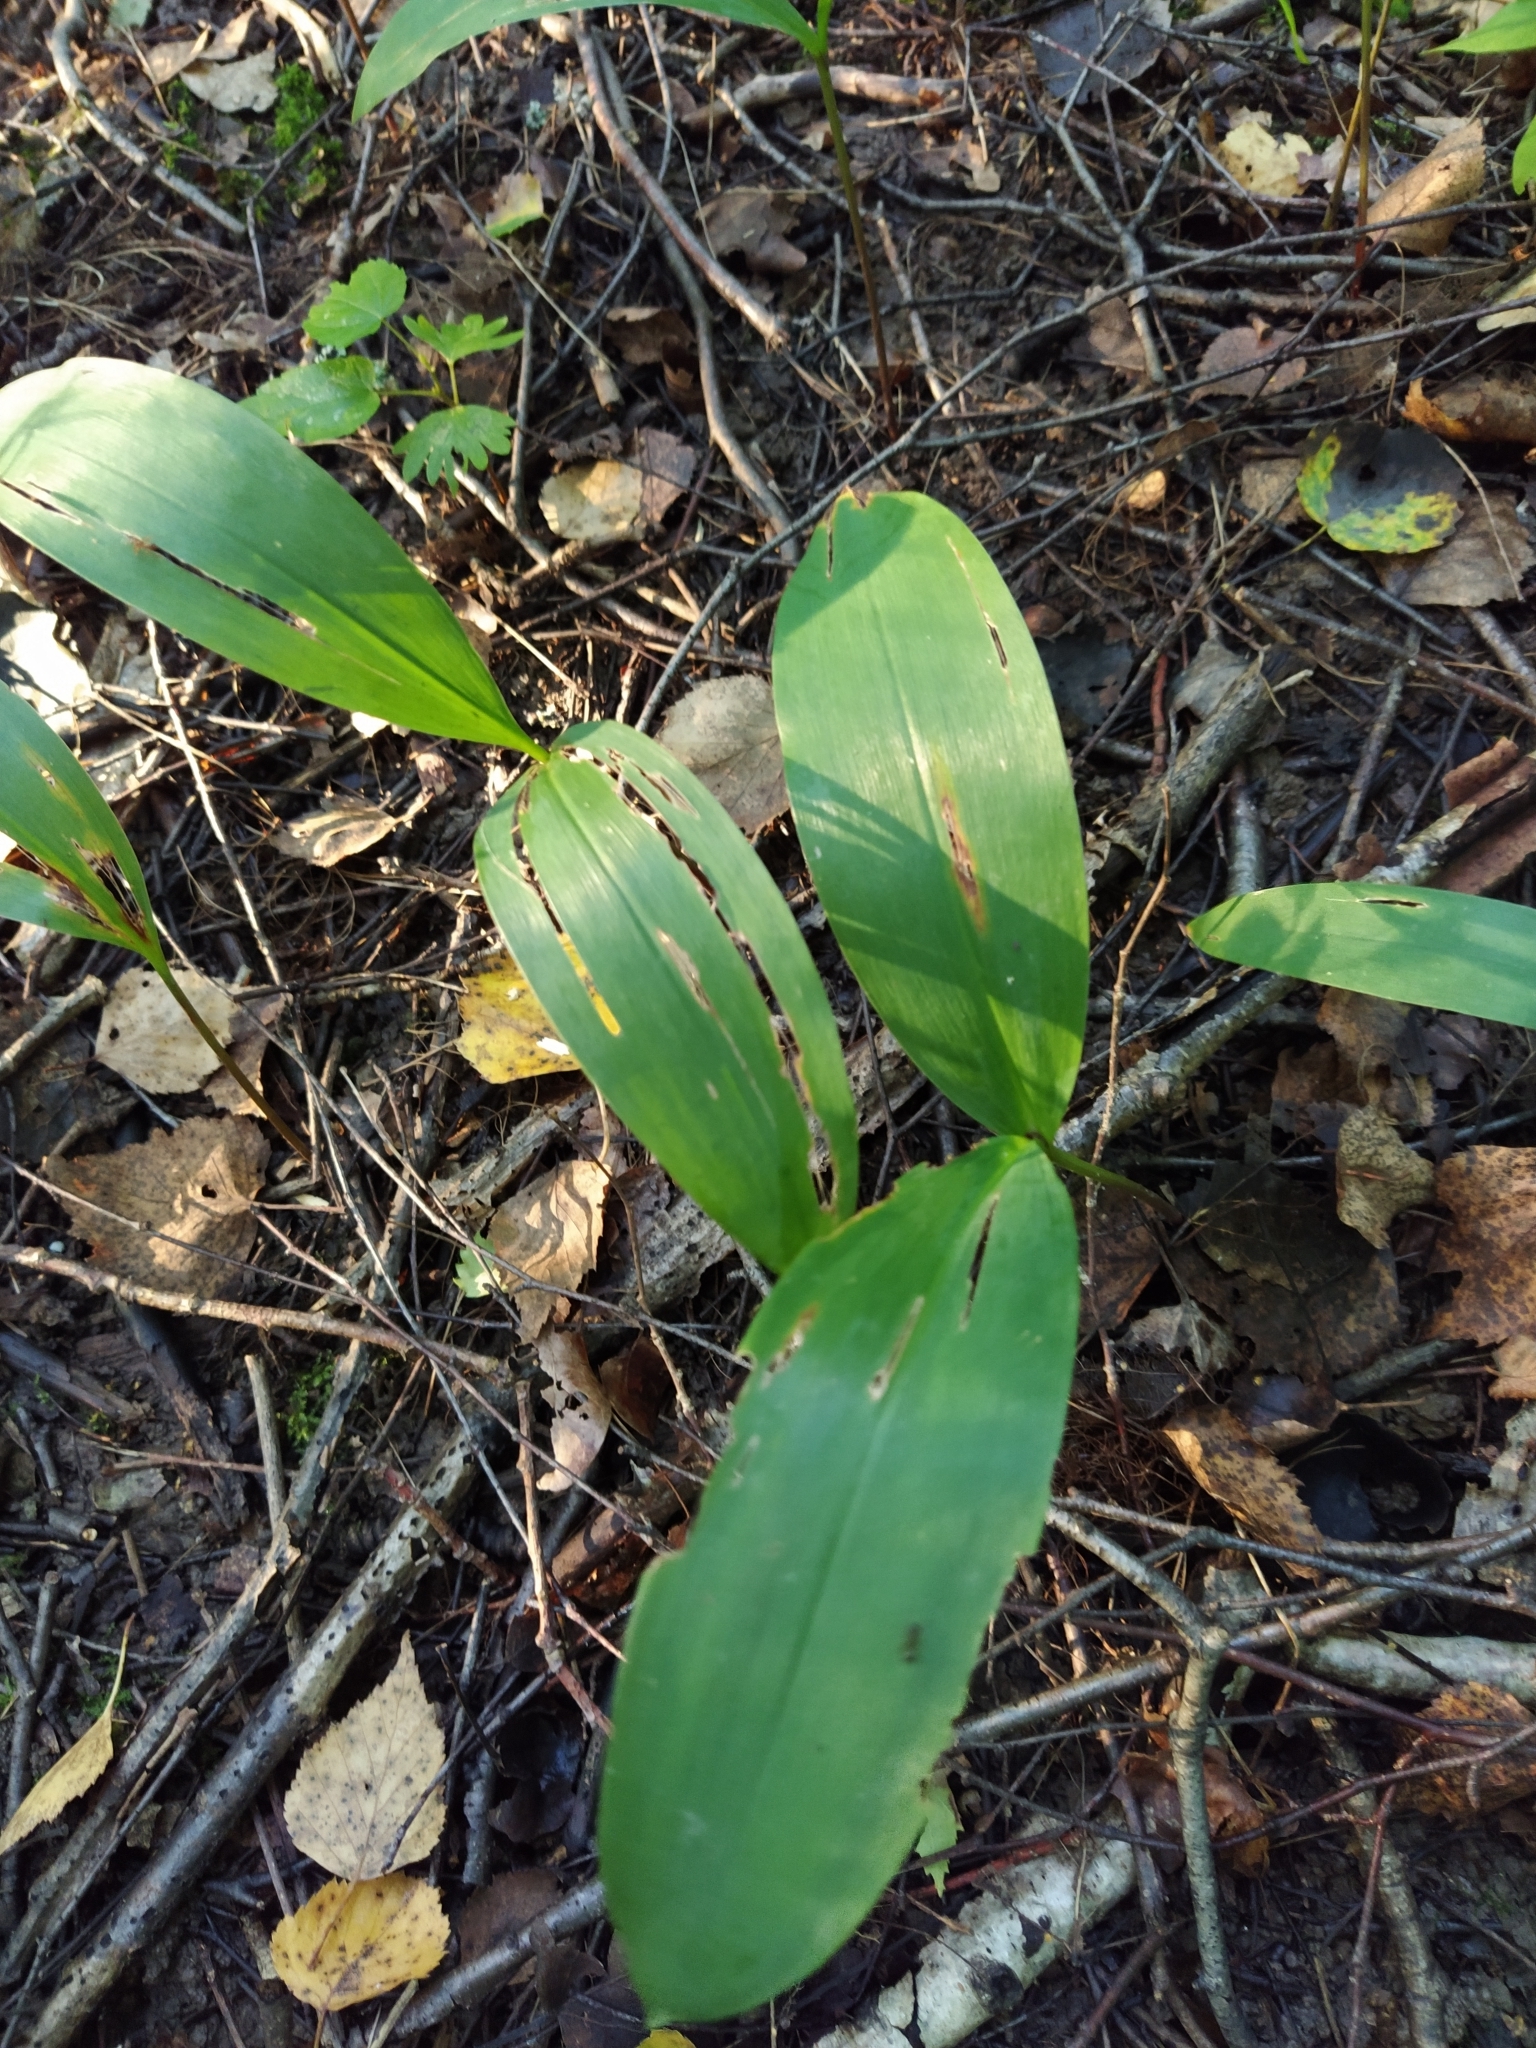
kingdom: Plantae
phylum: Tracheophyta
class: Liliopsida
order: Asparagales
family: Asparagaceae
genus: Convallaria
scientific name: Convallaria majalis
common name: Lily-of-the-valley
